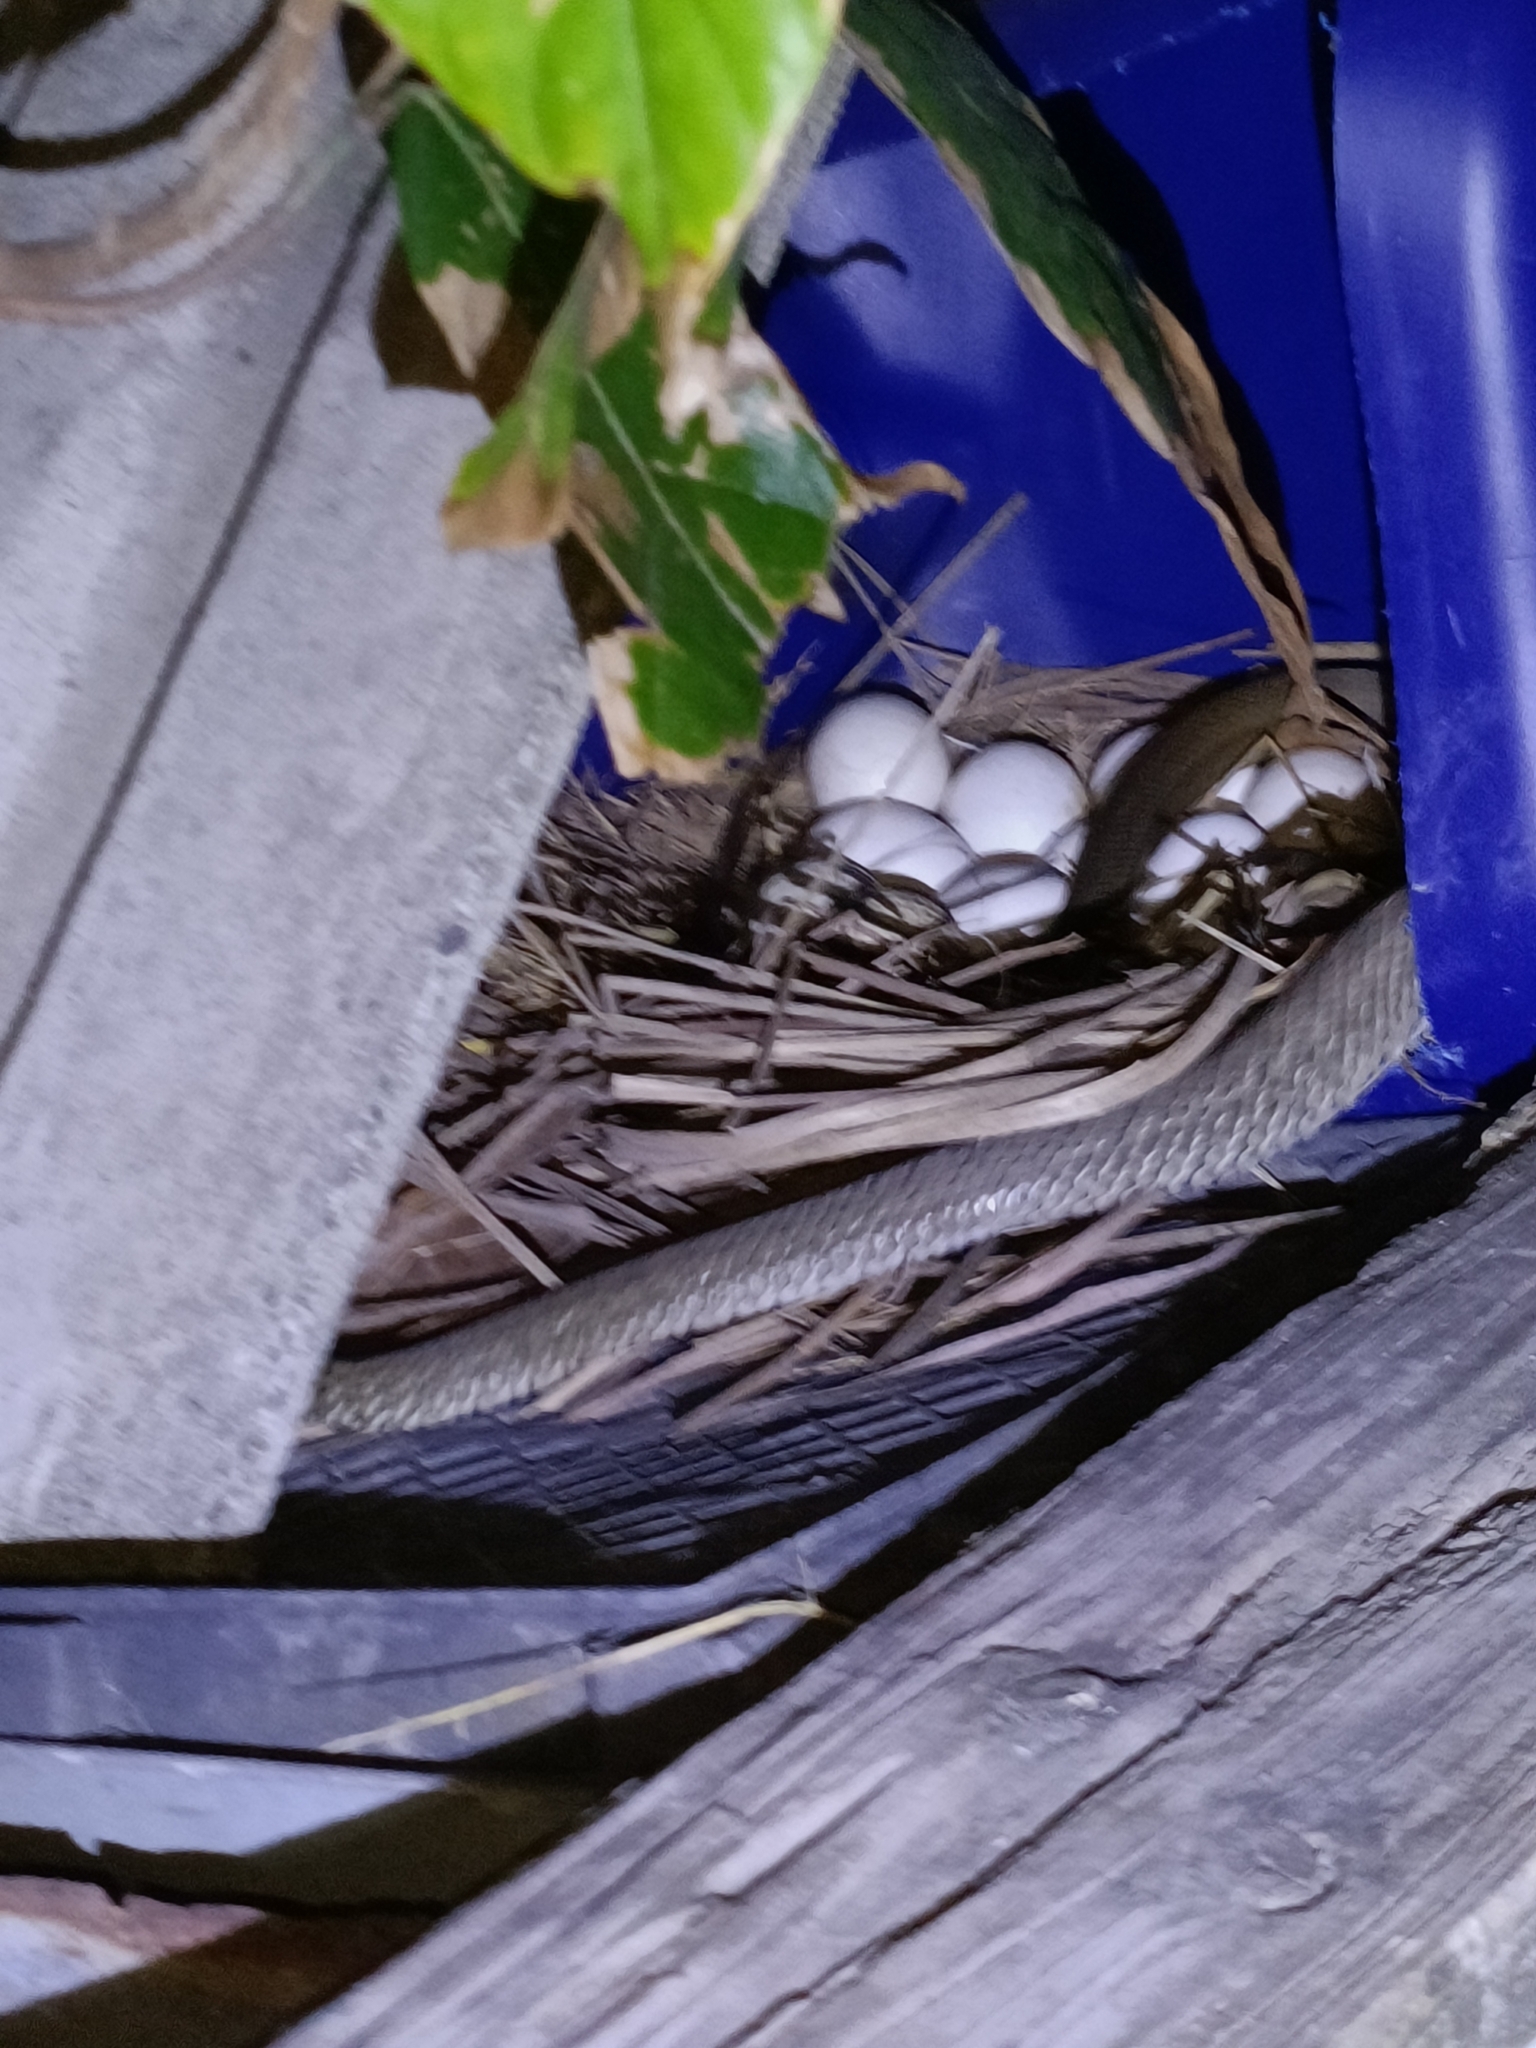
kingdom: Animalia
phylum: Chordata
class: Squamata
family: Colubridae
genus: Elaphe
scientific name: Elaphe carinata
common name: Taiwan stink snake
